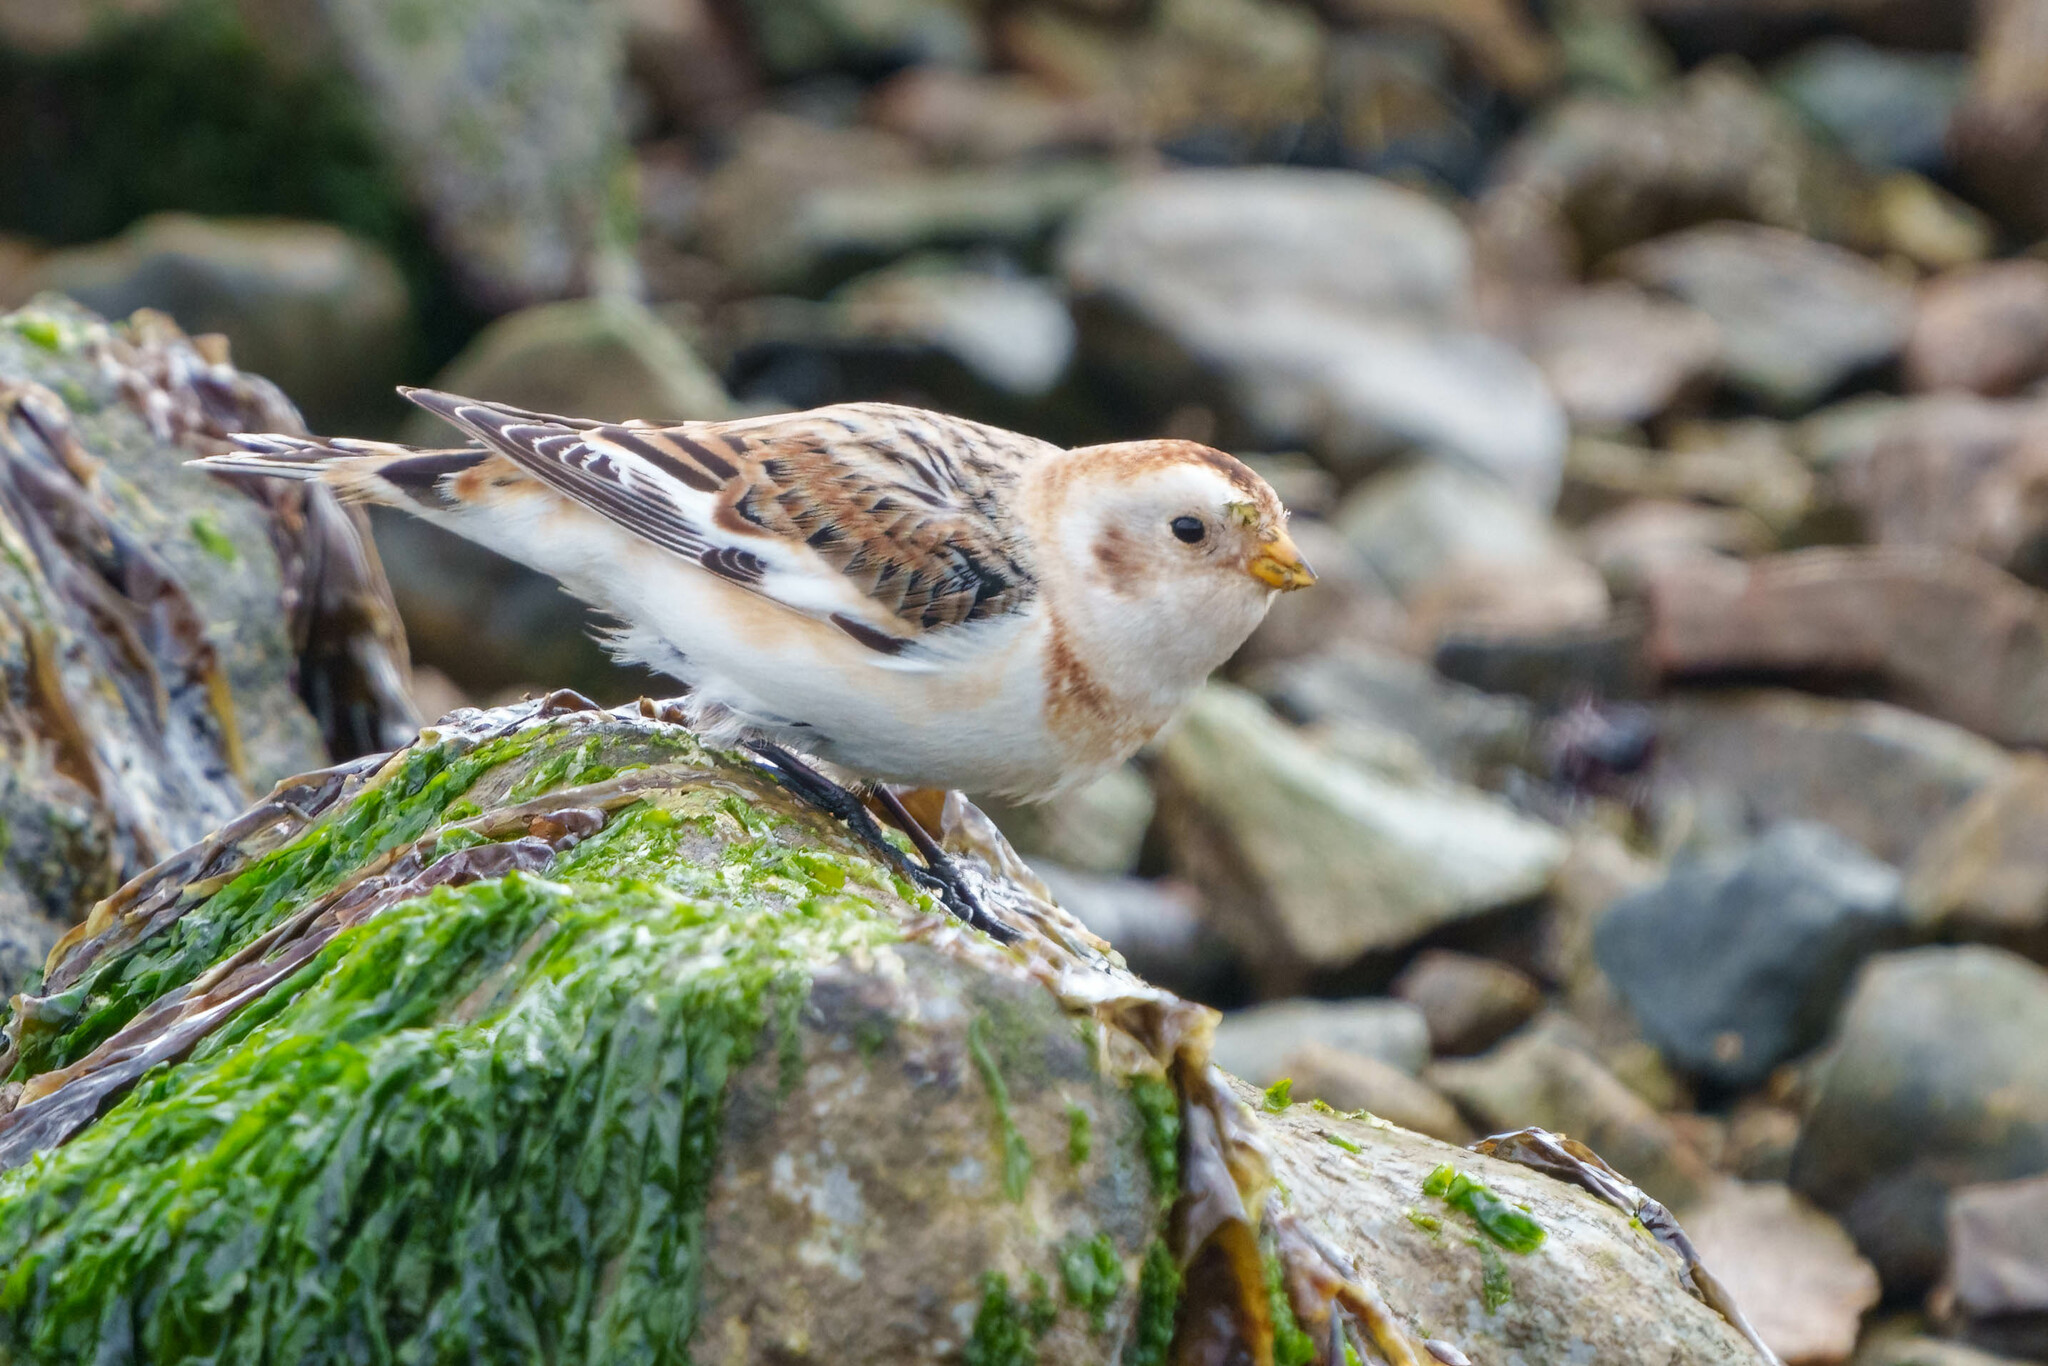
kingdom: Animalia
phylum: Chordata
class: Aves
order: Passeriformes
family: Calcariidae
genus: Plectrophenax
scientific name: Plectrophenax nivalis
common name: Snow bunting
